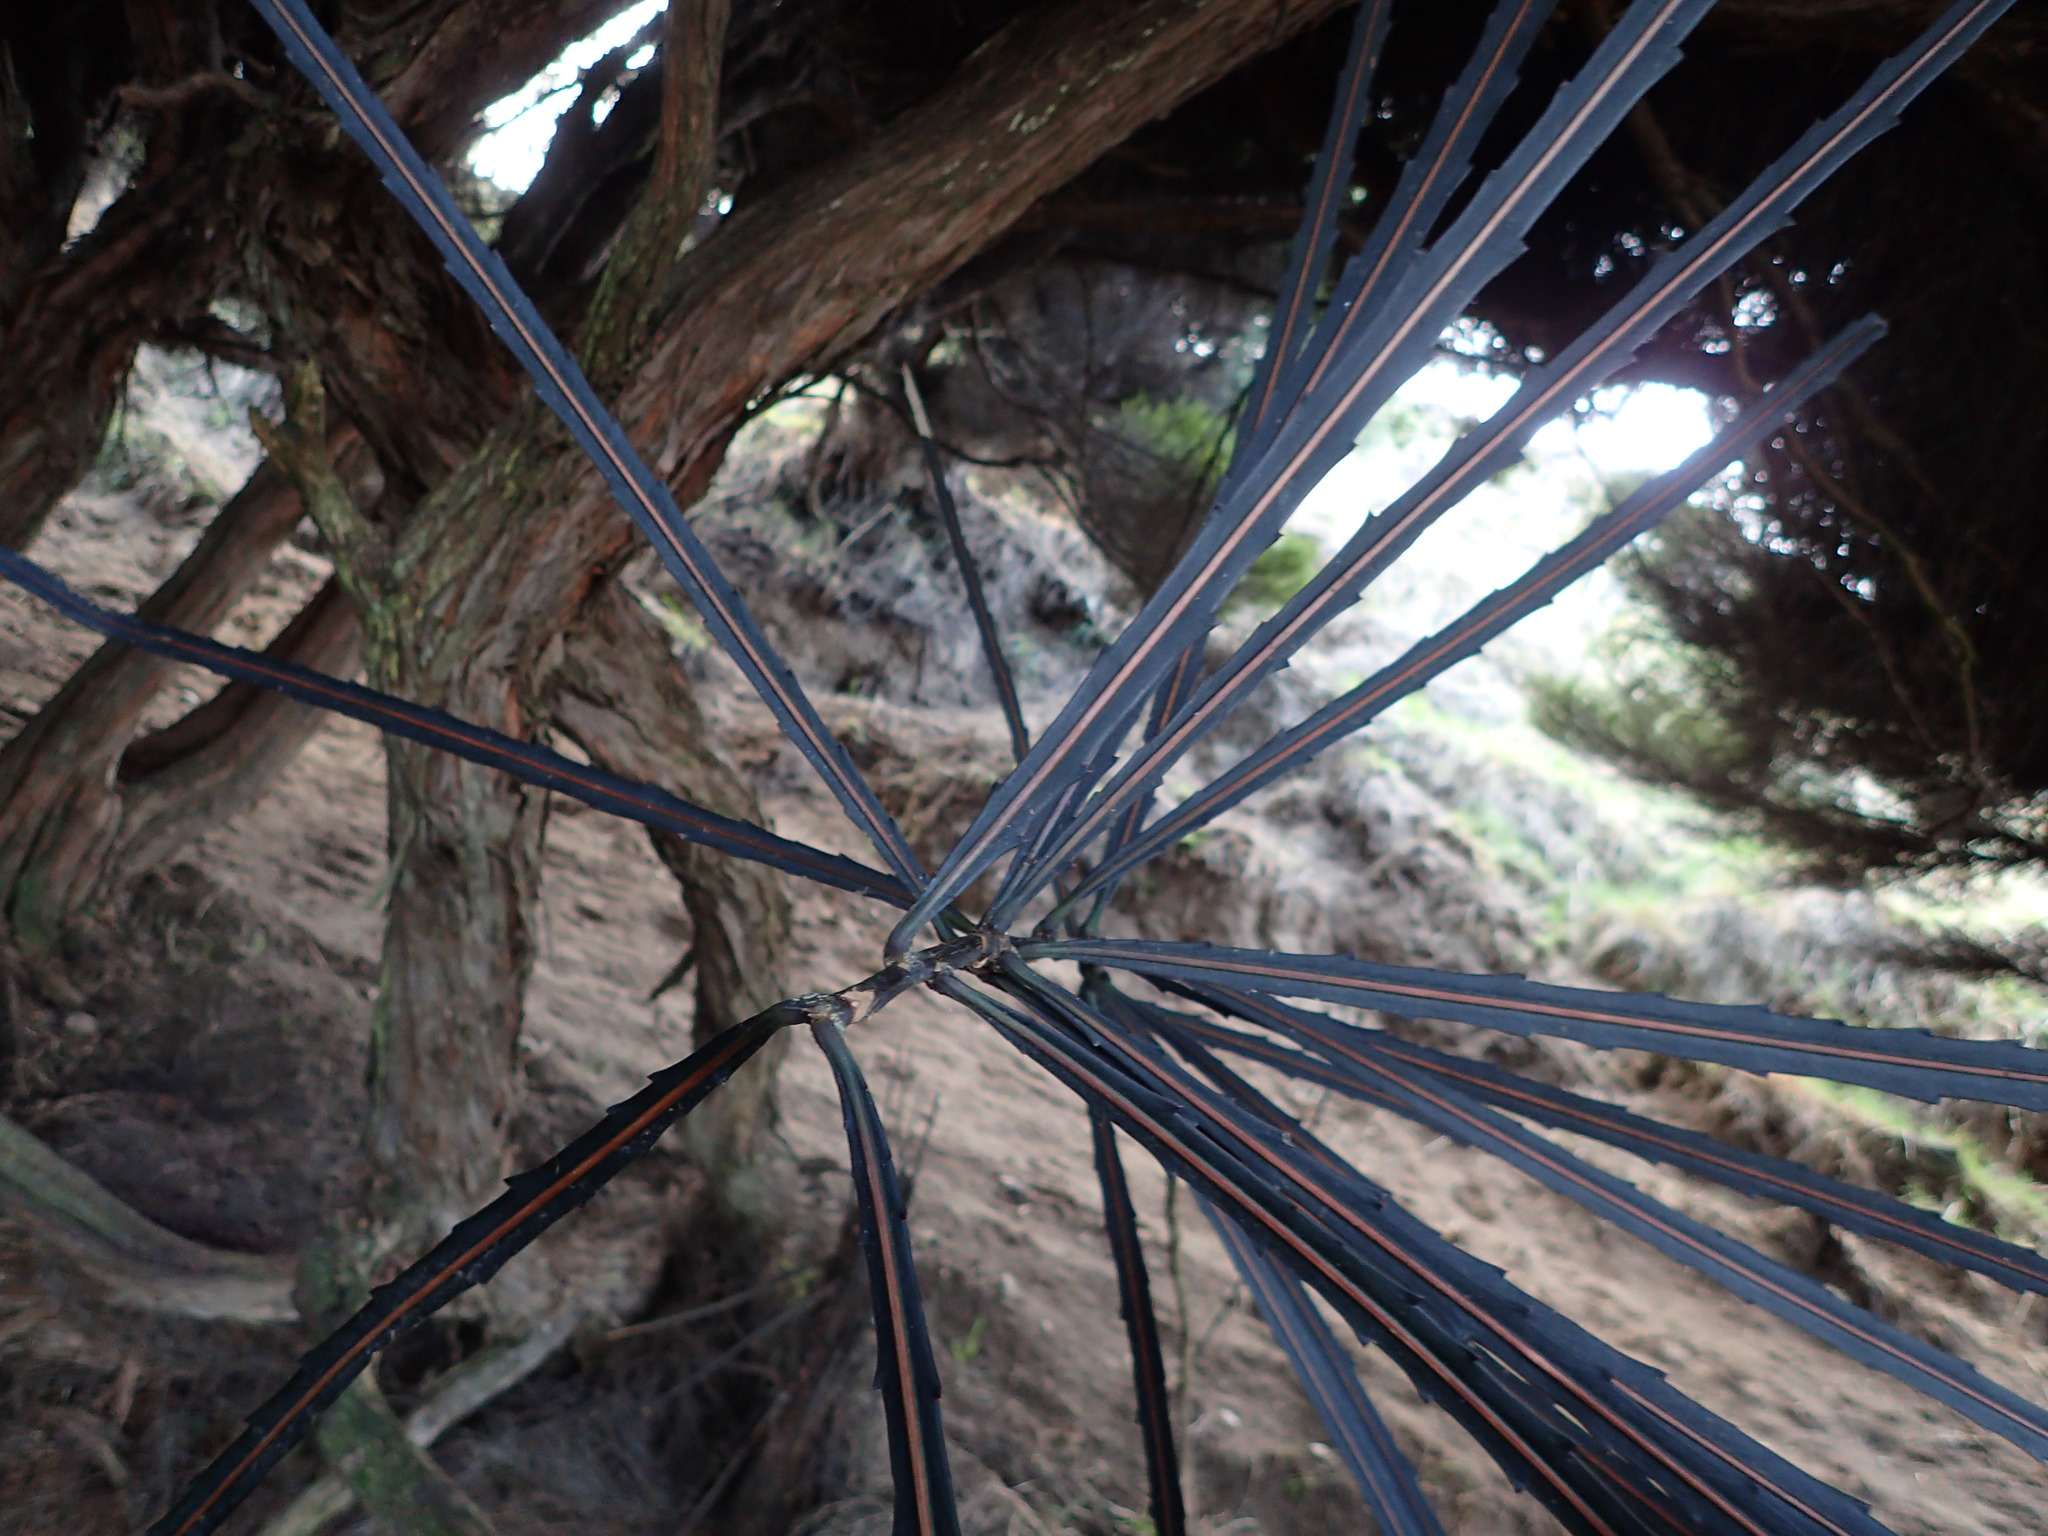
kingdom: Plantae
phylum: Tracheophyta
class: Magnoliopsida
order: Apiales
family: Araliaceae
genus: Pseudopanax
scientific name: Pseudopanax crassifolius
